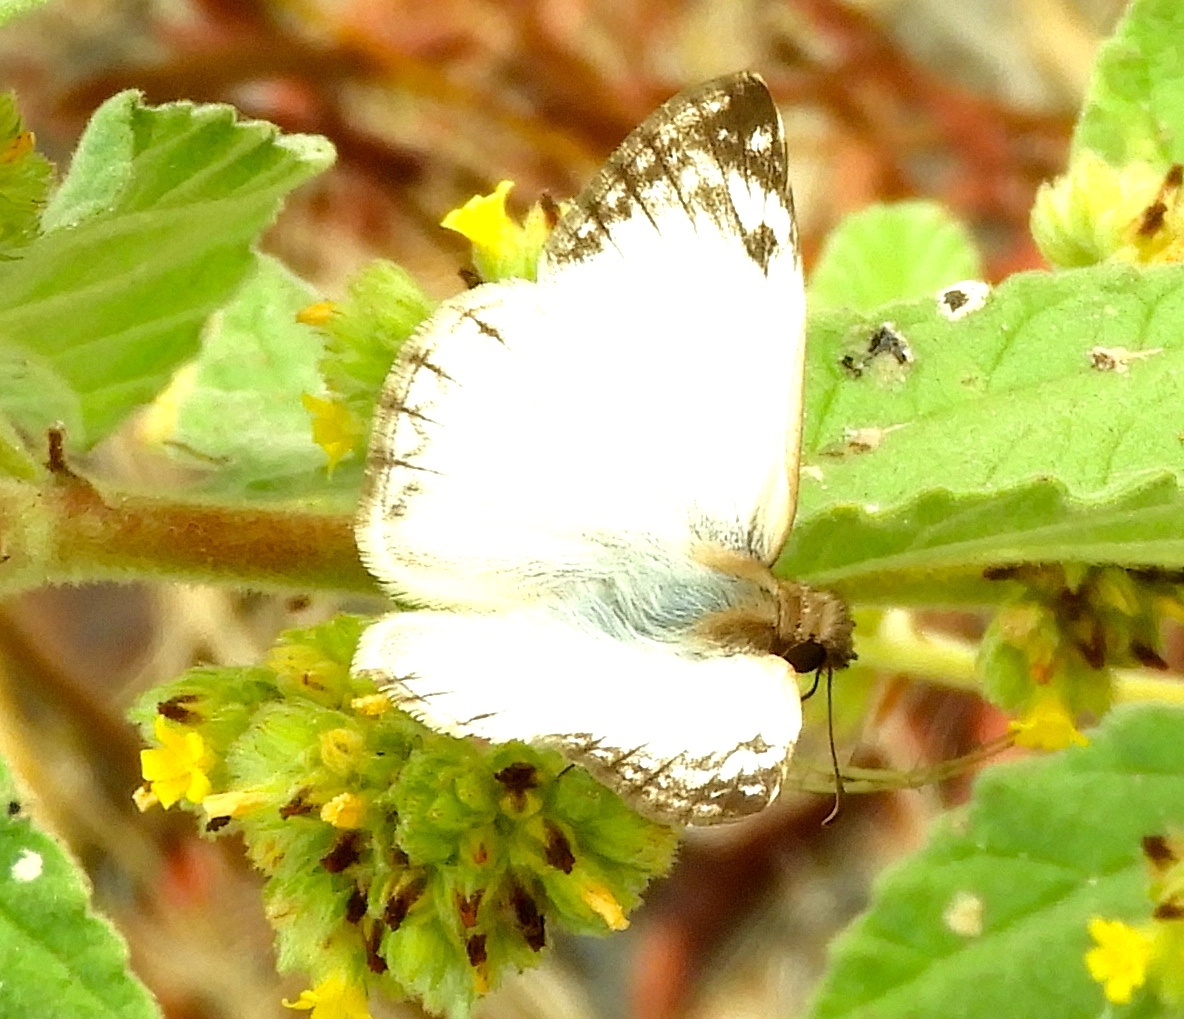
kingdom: Animalia
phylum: Arthropoda
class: Insecta
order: Lepidoptera
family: Hesperiidae
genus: Heliopetes
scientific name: Heliopetes laviana
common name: Laviana white-skipper
